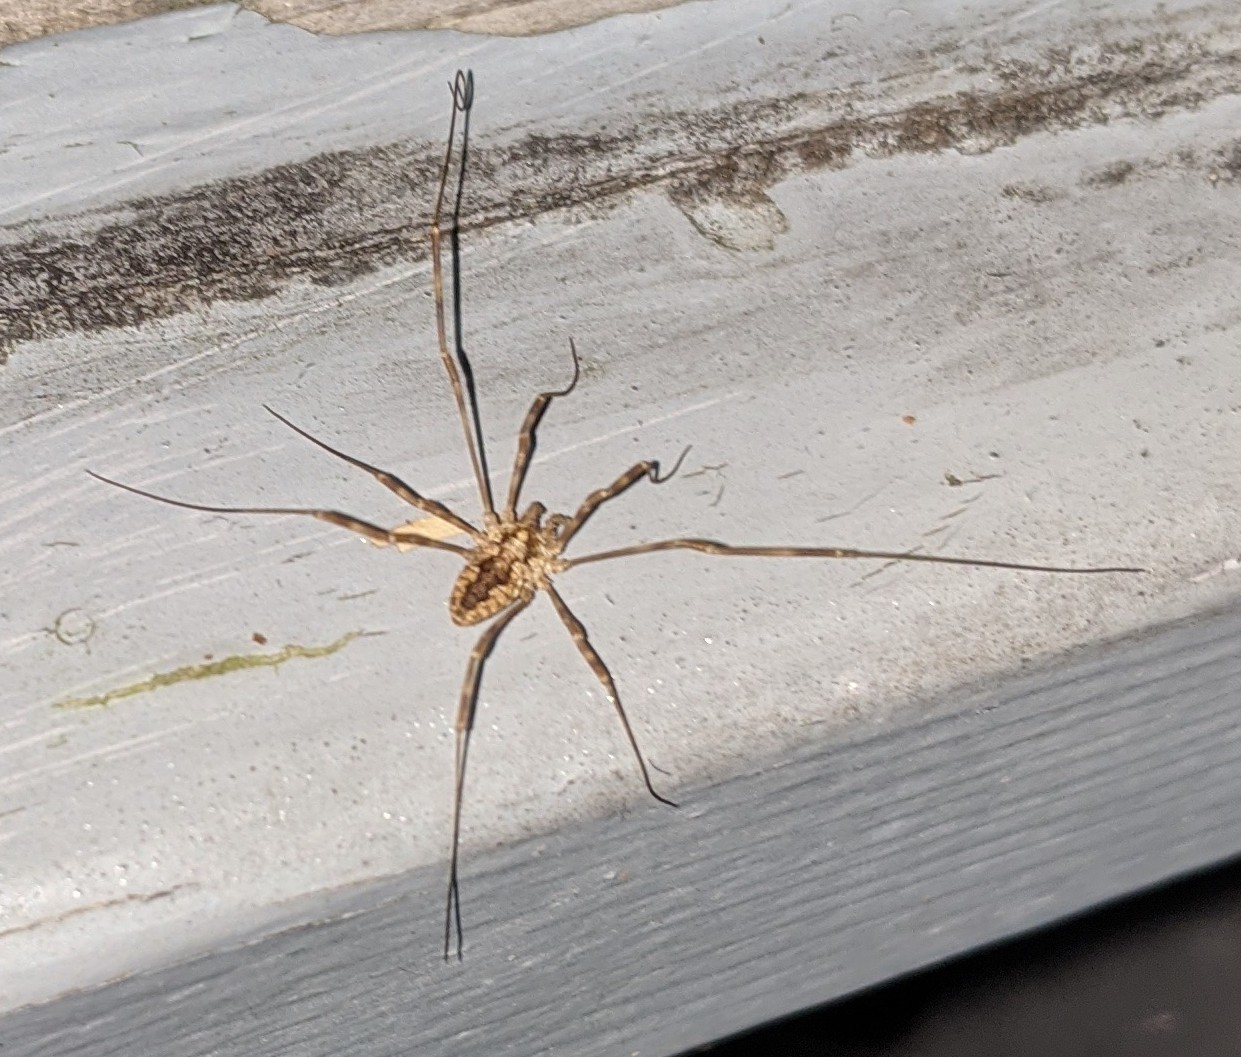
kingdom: Animalia
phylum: Arthropoda
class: Arachnida
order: Opiliones
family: Phalangiidae
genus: Odiellus
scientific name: Odiellus pictus
